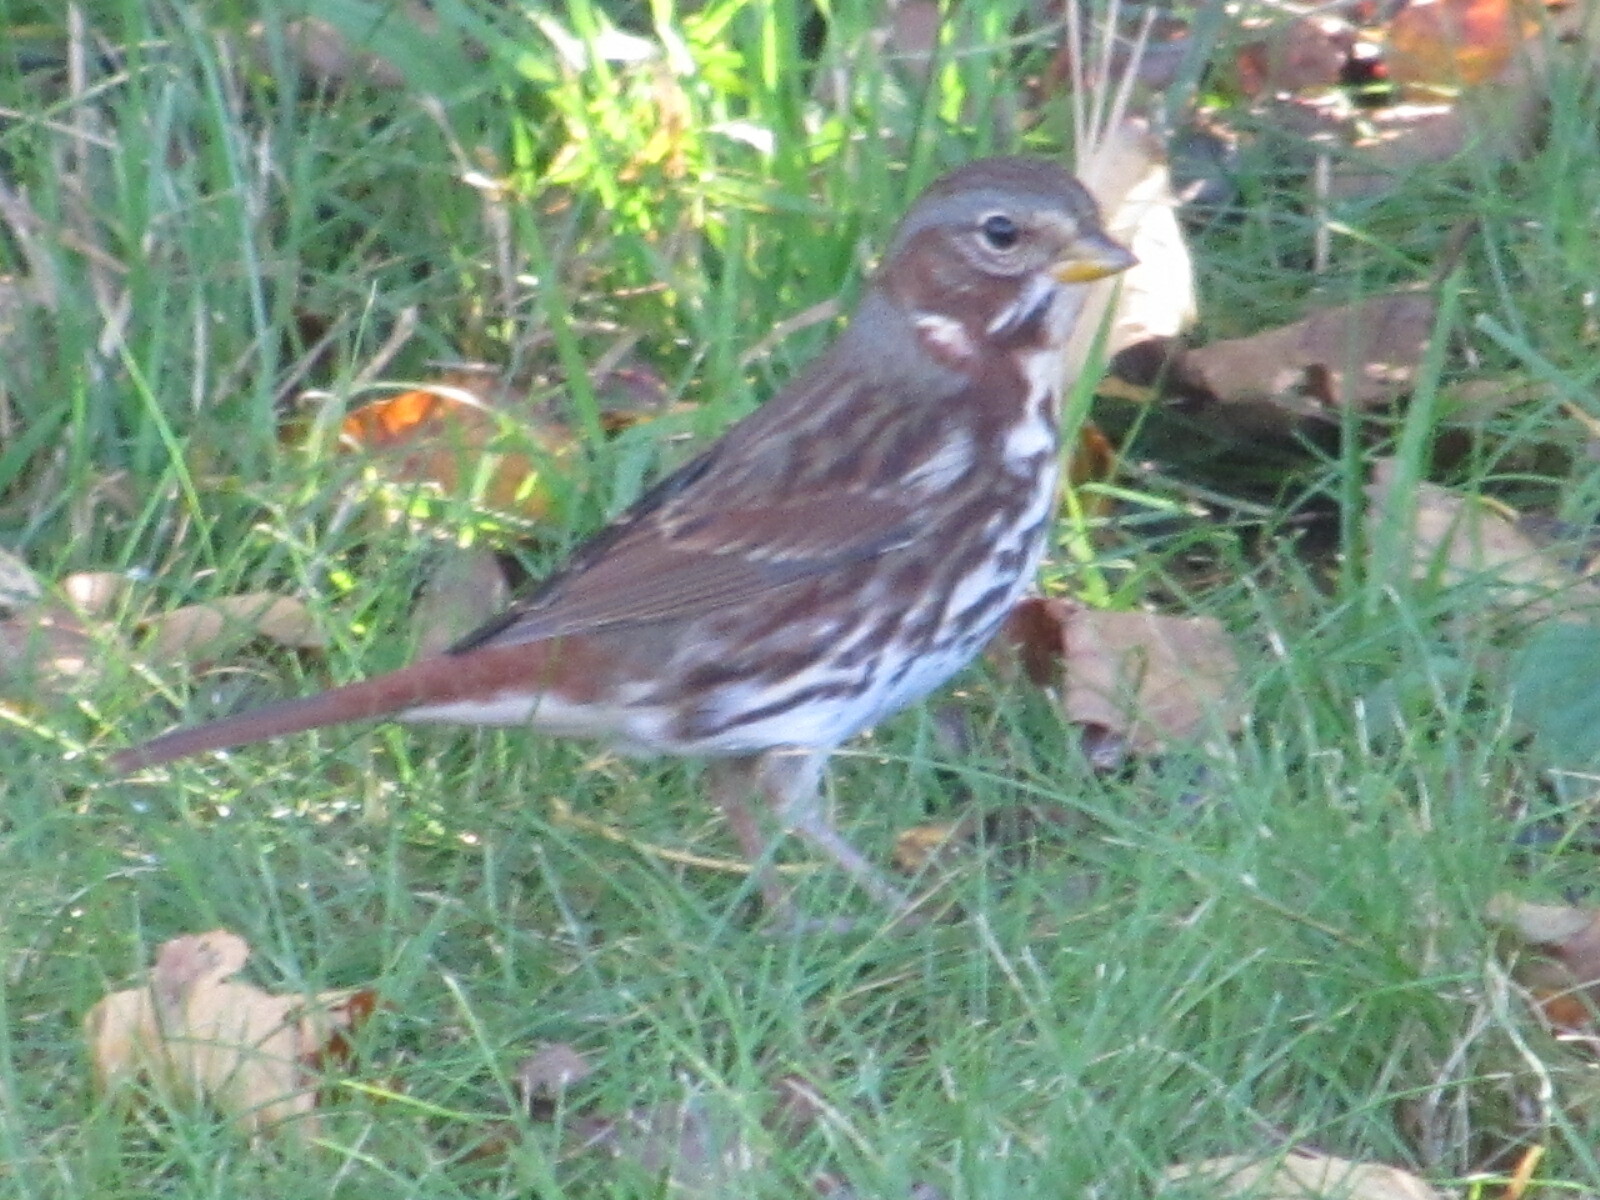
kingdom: Animalia
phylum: Chordata
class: Aves
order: Passeriformes
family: Passerellidae
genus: Passerella
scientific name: Passerella iliaca
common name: Fox sparrow
